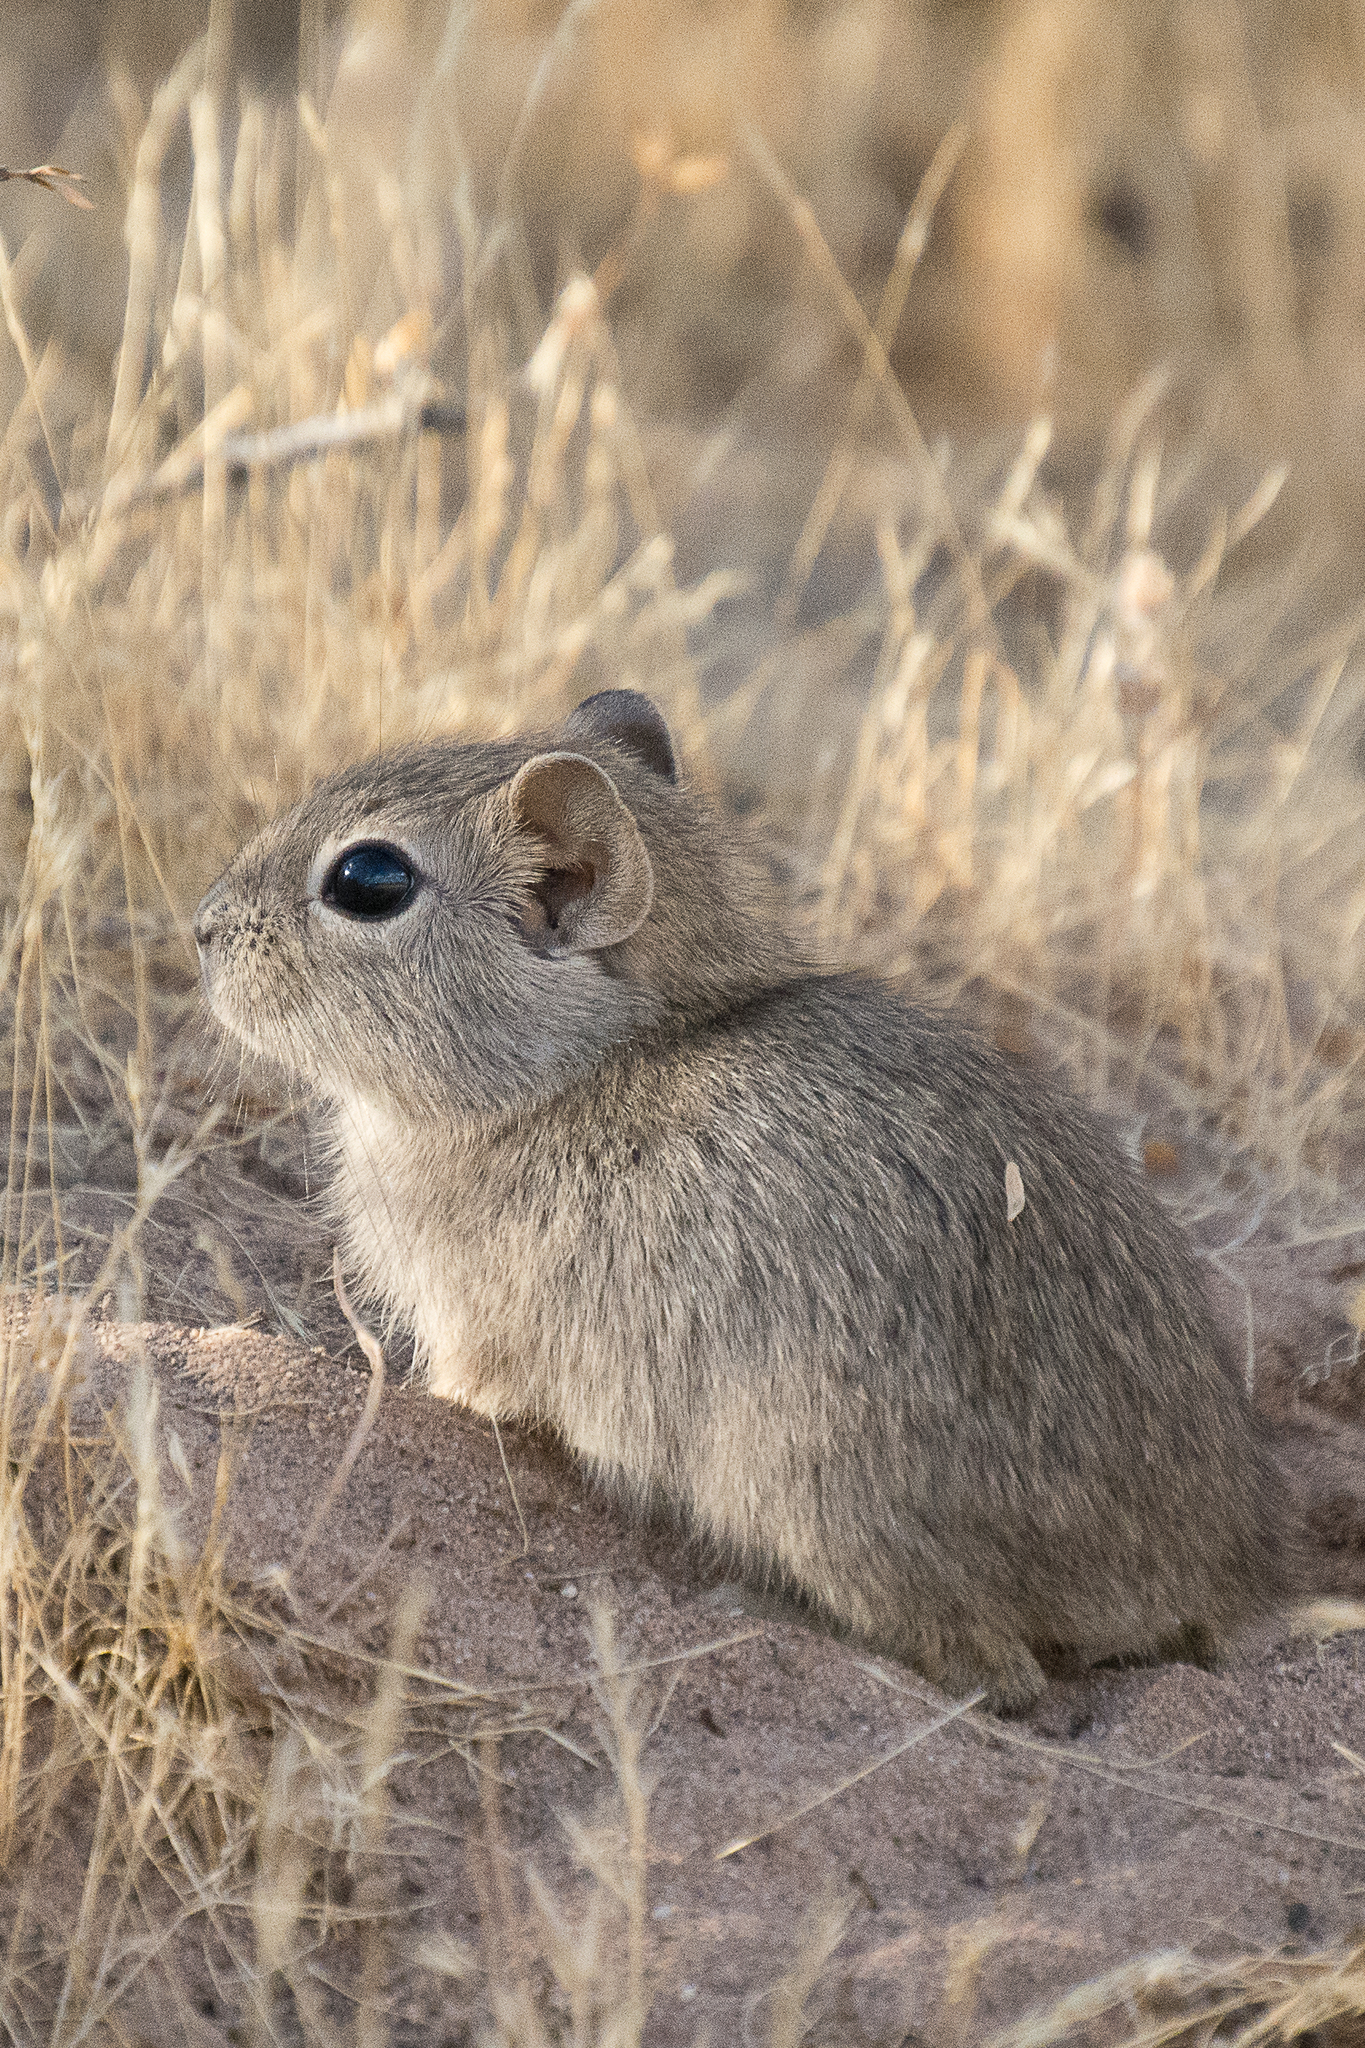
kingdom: Animalia
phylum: Chordata
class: Mammalia
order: Rodentia
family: Caviidae
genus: Microcavia
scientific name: Microcavia australis
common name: Southern mountain cavy
